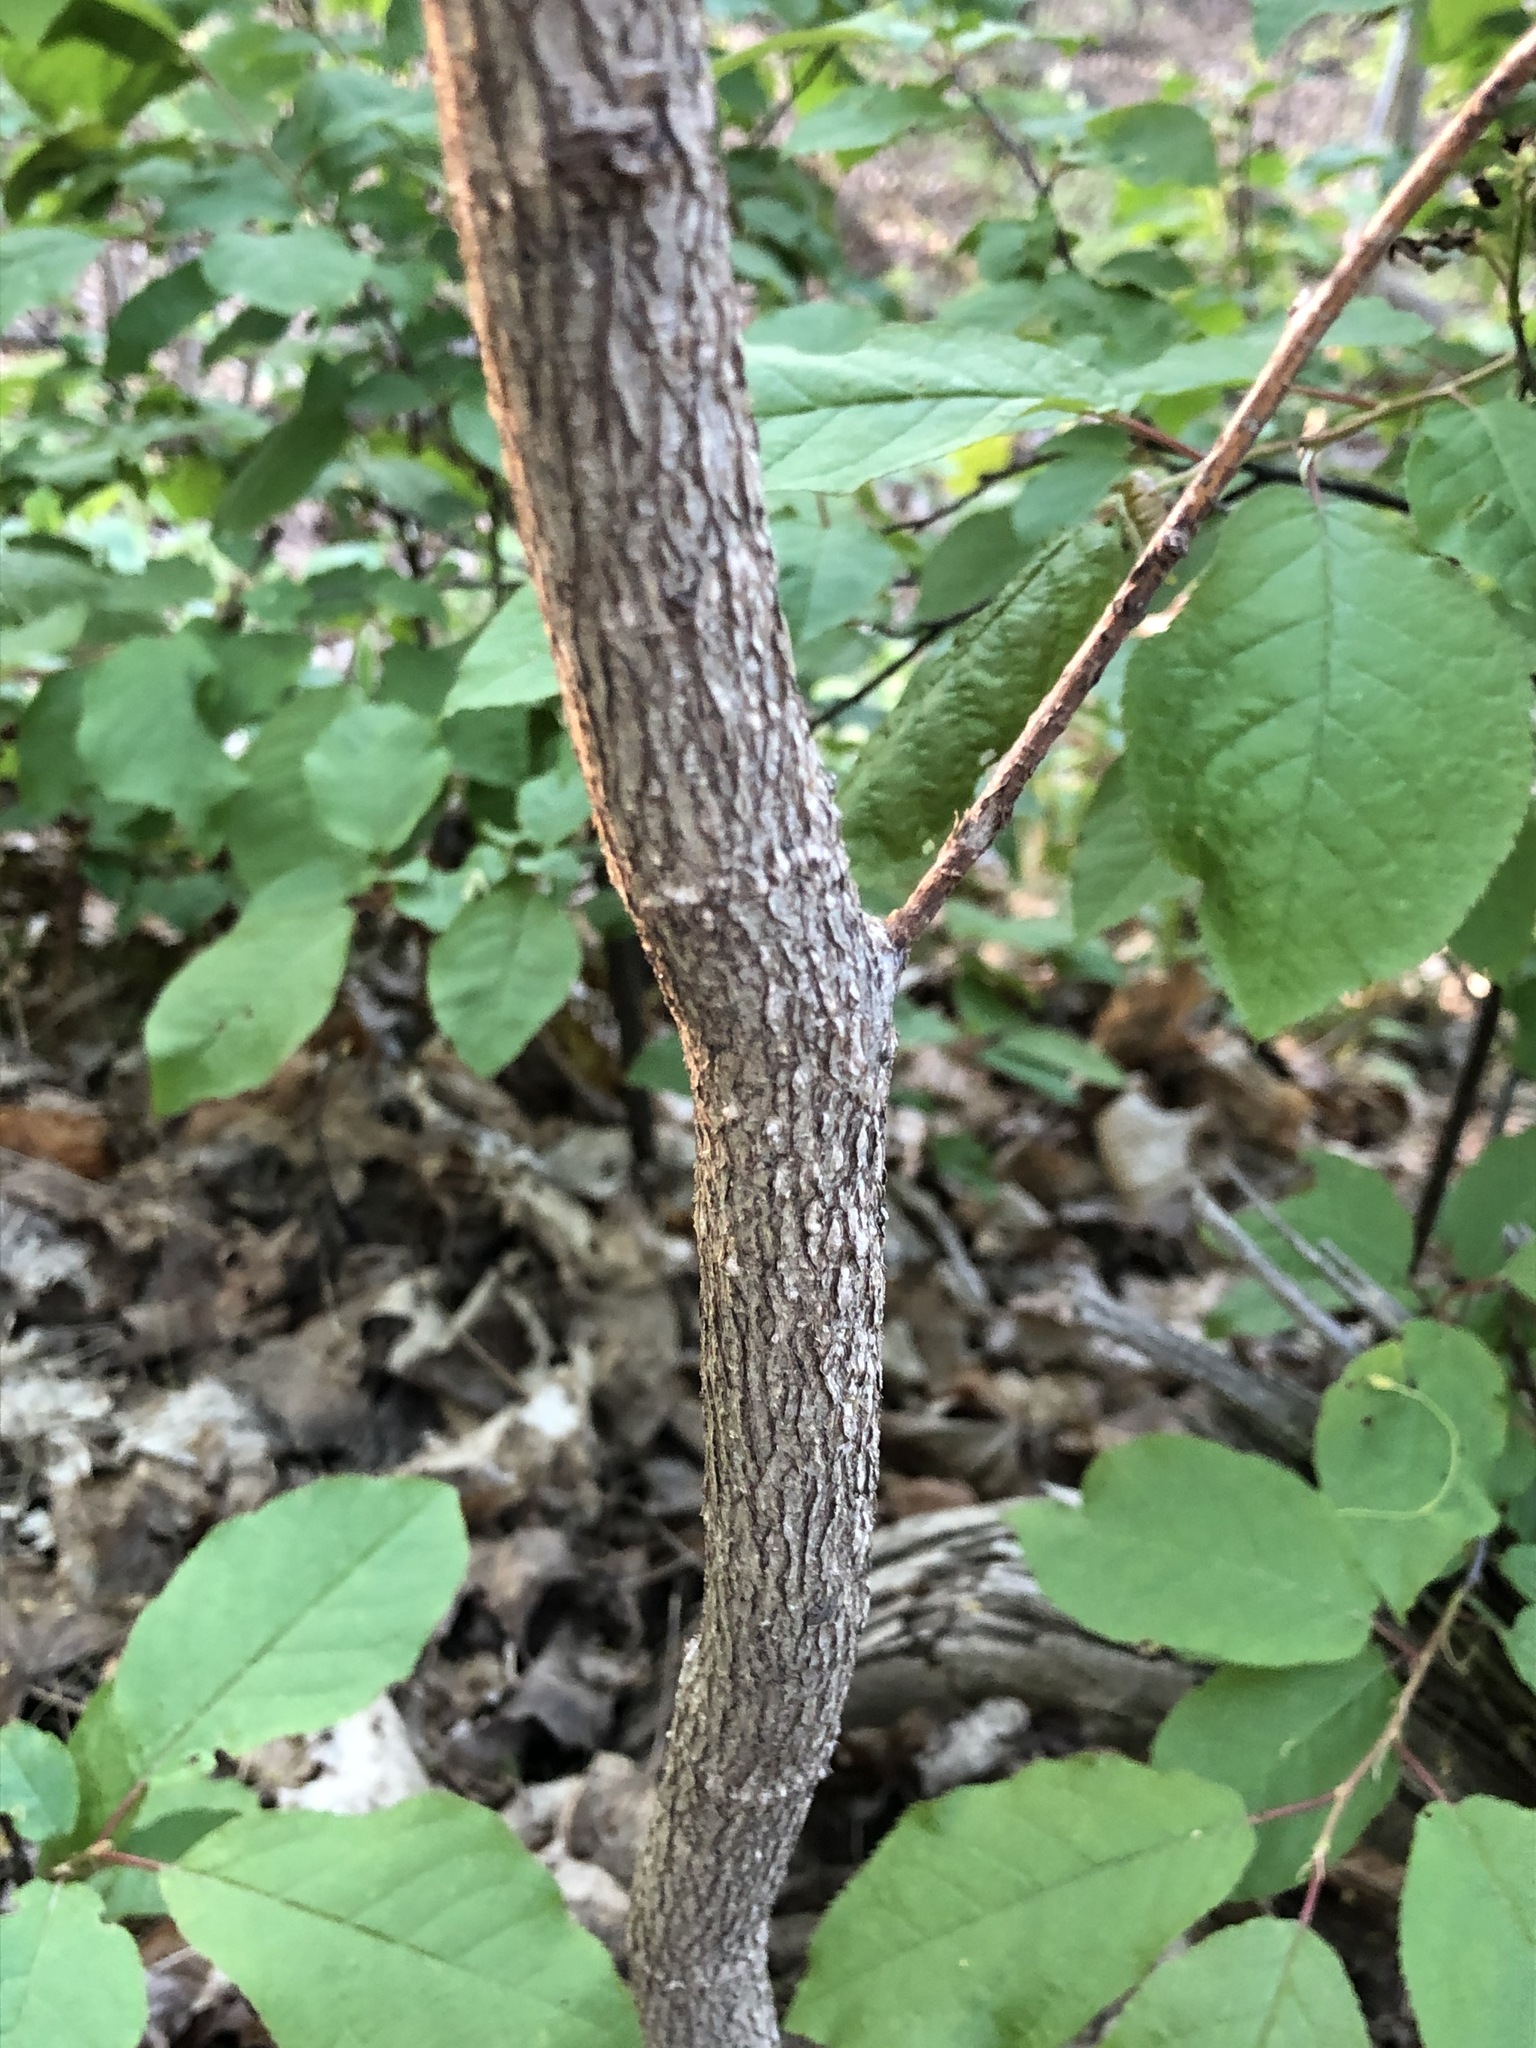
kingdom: Plantae
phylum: Tracheophyta
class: Magnoliopsida
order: Rosales
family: Cannabaceae
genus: Celtis
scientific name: Celtis occidentalis
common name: Common hackberry
